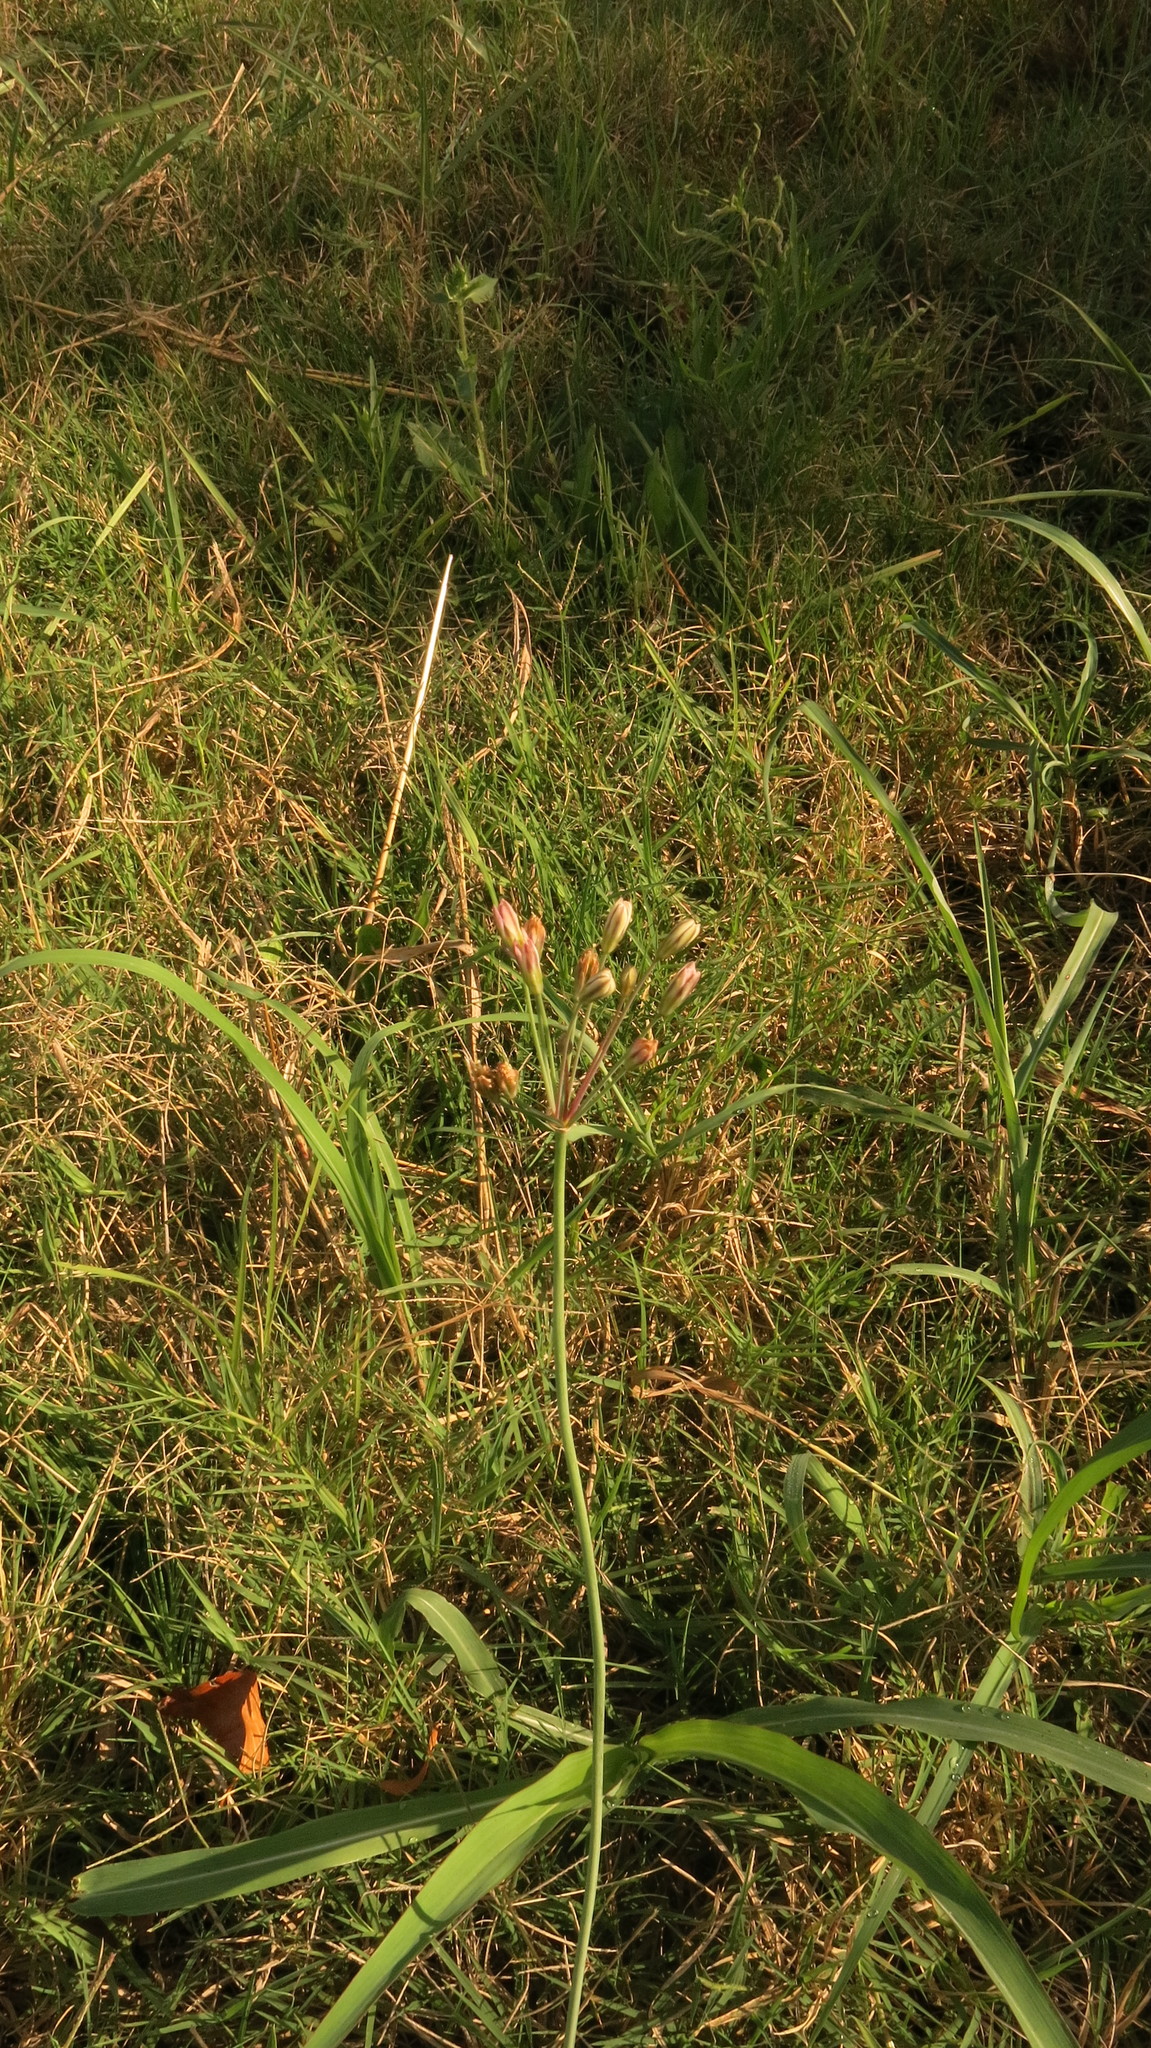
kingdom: Plantae
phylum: Tracheophyta
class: Liliopsida
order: Asparagales
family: Amaryllidaceae
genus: Nothoscordum
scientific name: Nothoscordum gracile
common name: Slender false garlic
